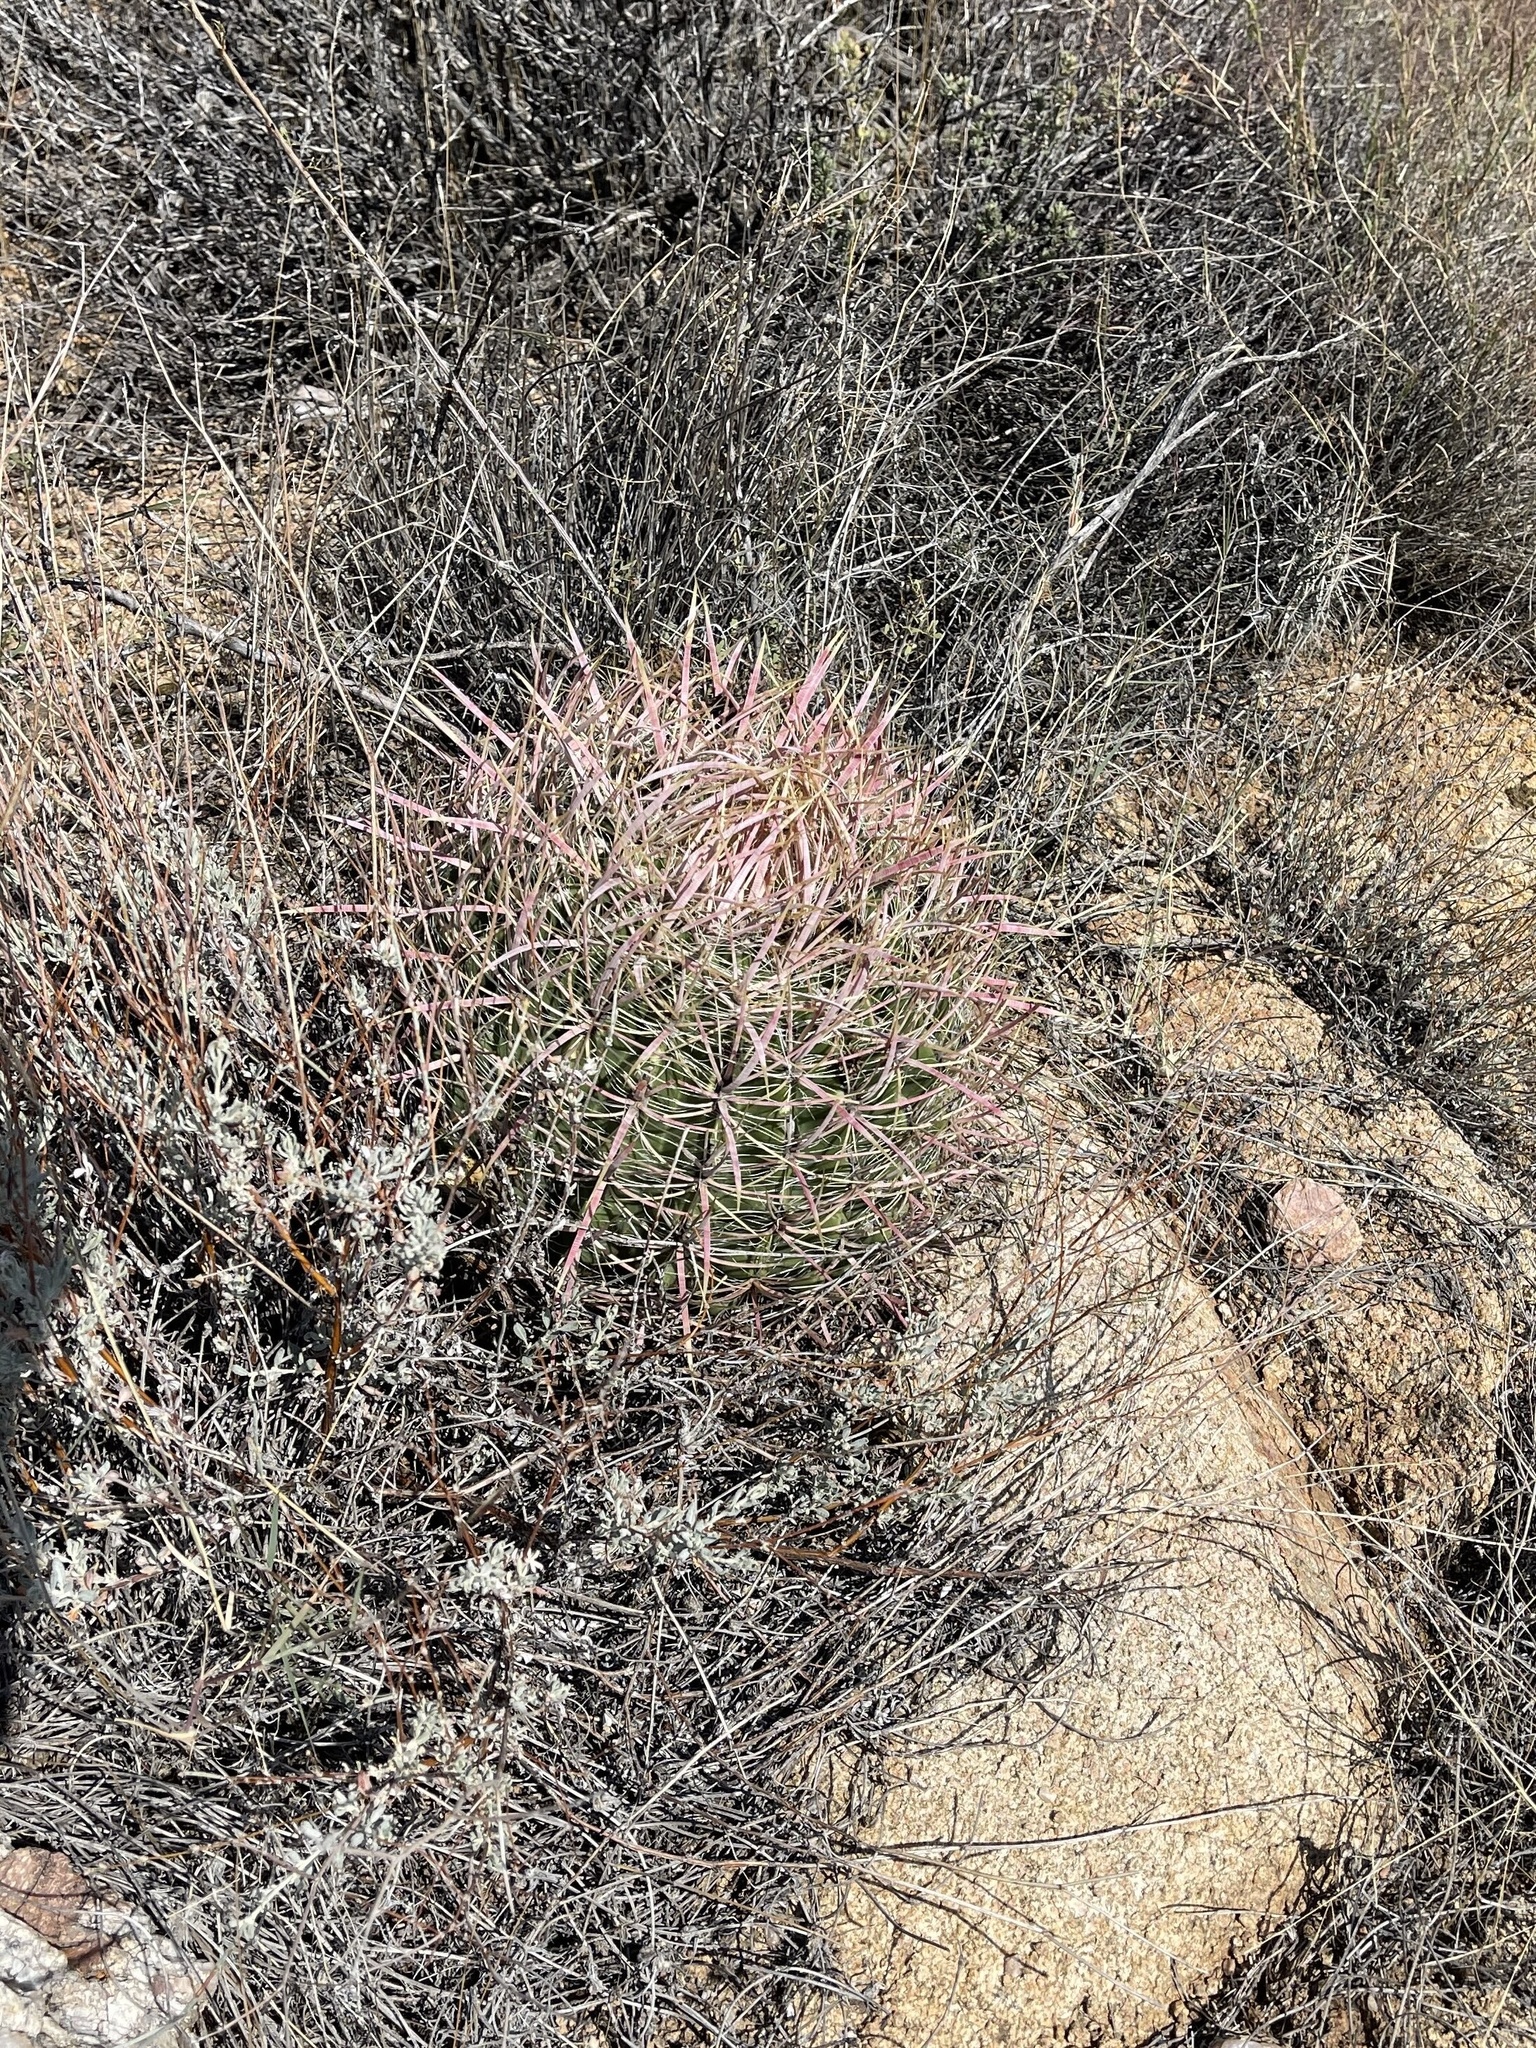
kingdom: Plantae
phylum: Tracheophyta
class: Magnoliopsida
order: Caryophyllales
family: Cactaceae
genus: Ferocactus
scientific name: Ferocactus cylindraceus
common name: California barrel cactus
